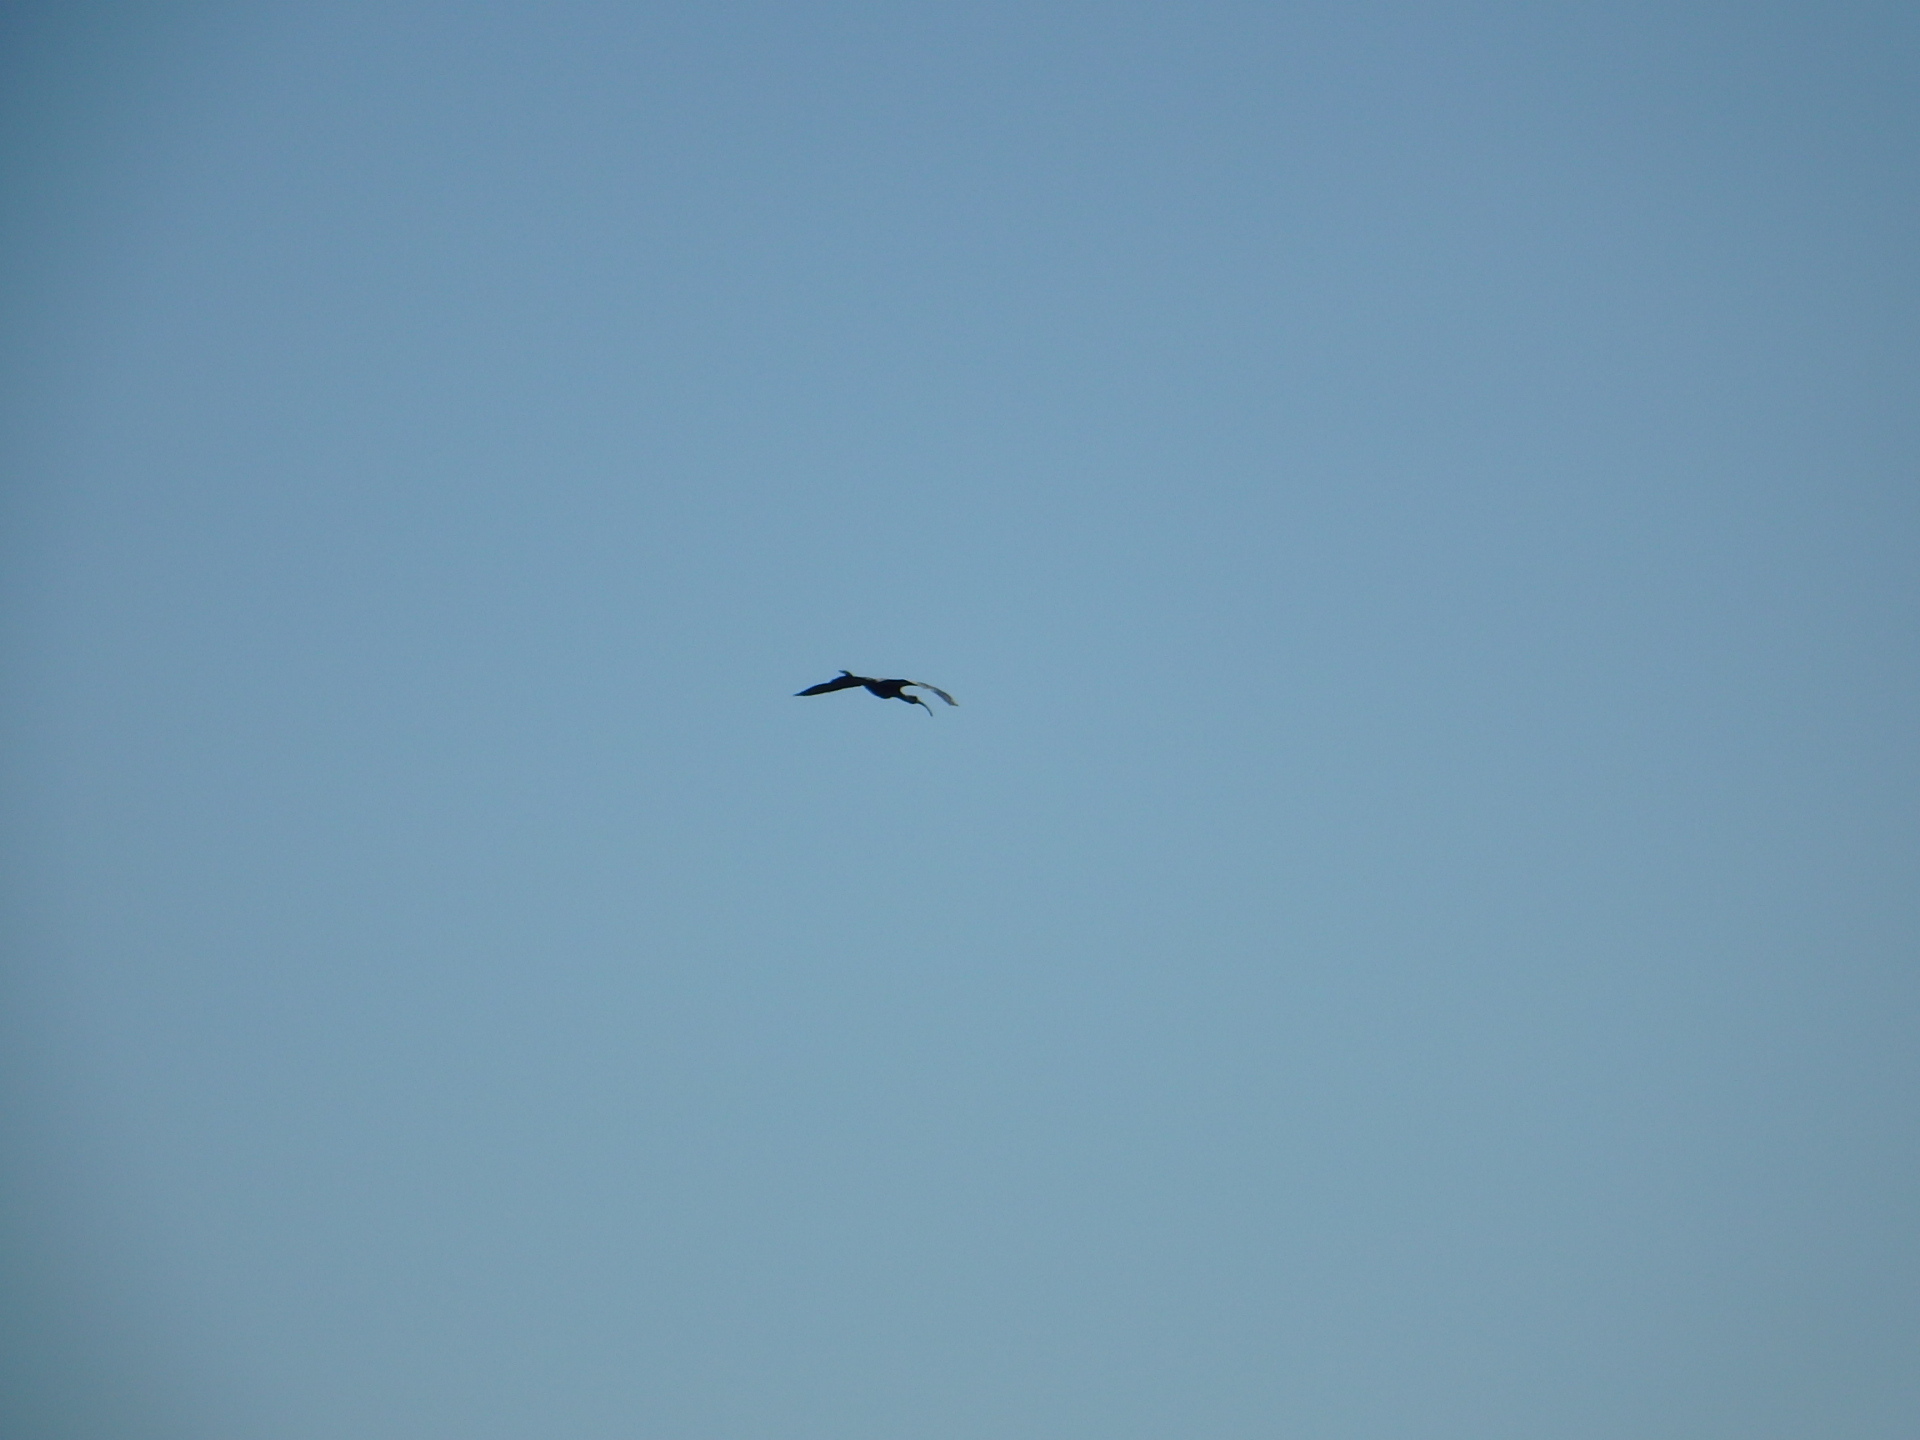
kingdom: Animalia
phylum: Chordata
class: Aves
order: Pelecaniformes
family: Threskiornithidae
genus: Plegadis
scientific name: Plegadis falcinellus
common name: Glossy ibis
